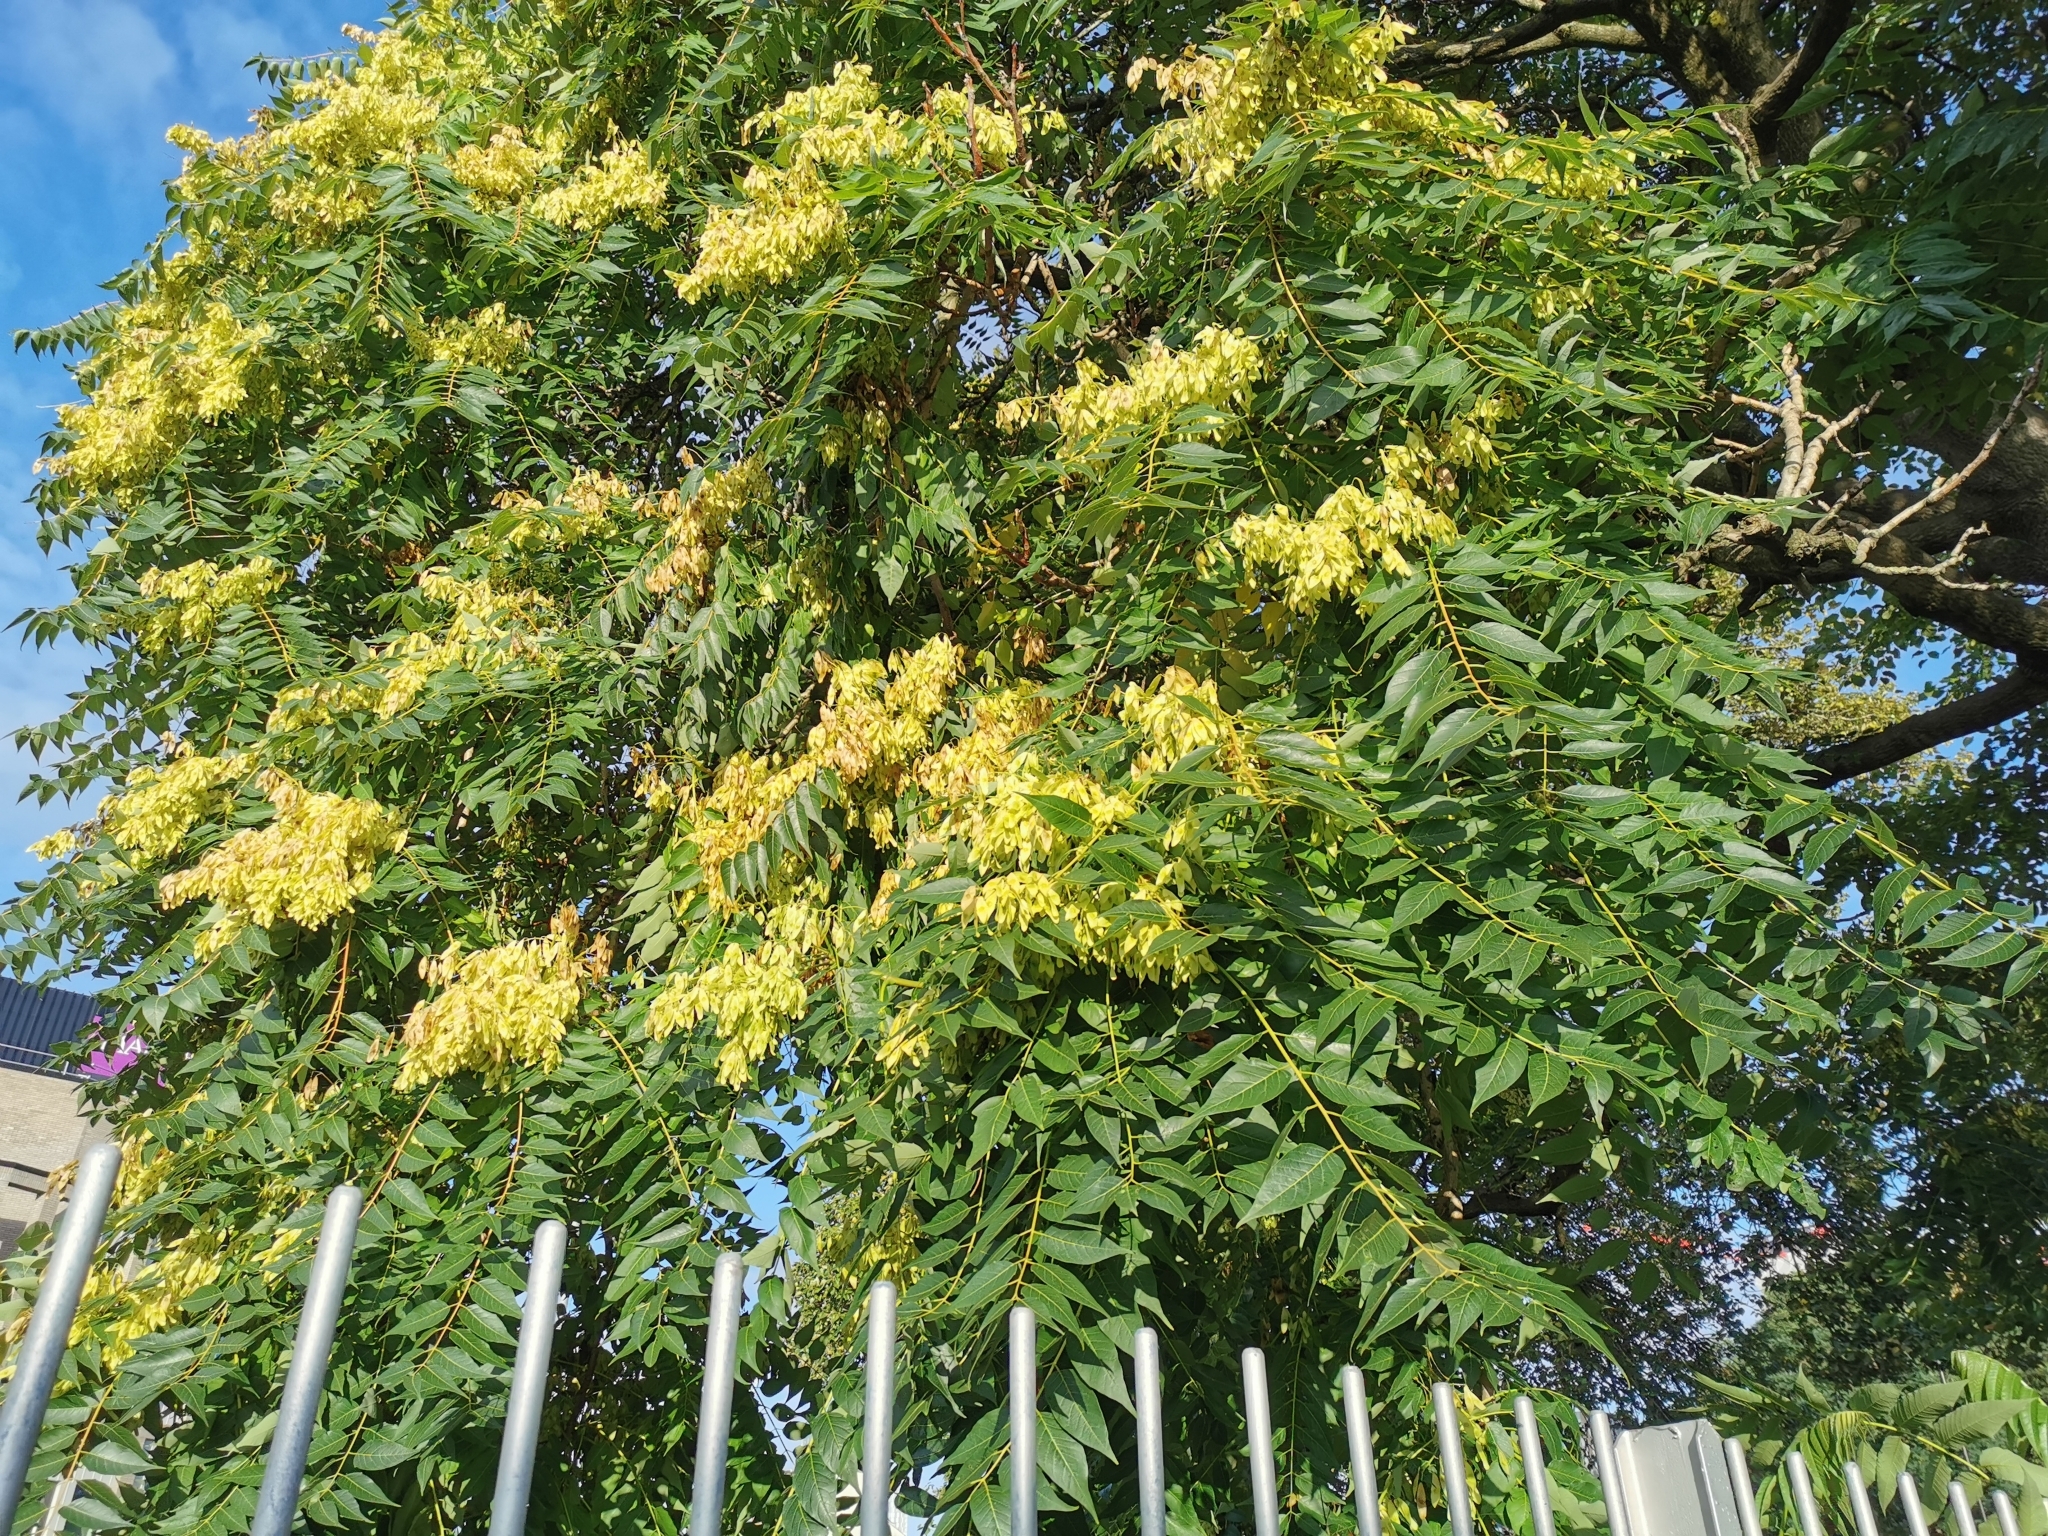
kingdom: Plantae
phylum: Tracheophyta
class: Magnoliopsida
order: Sapindales
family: Simaroubaceae
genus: Ailanthus
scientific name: Ailanthus altissima
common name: Tree-of-heaven
